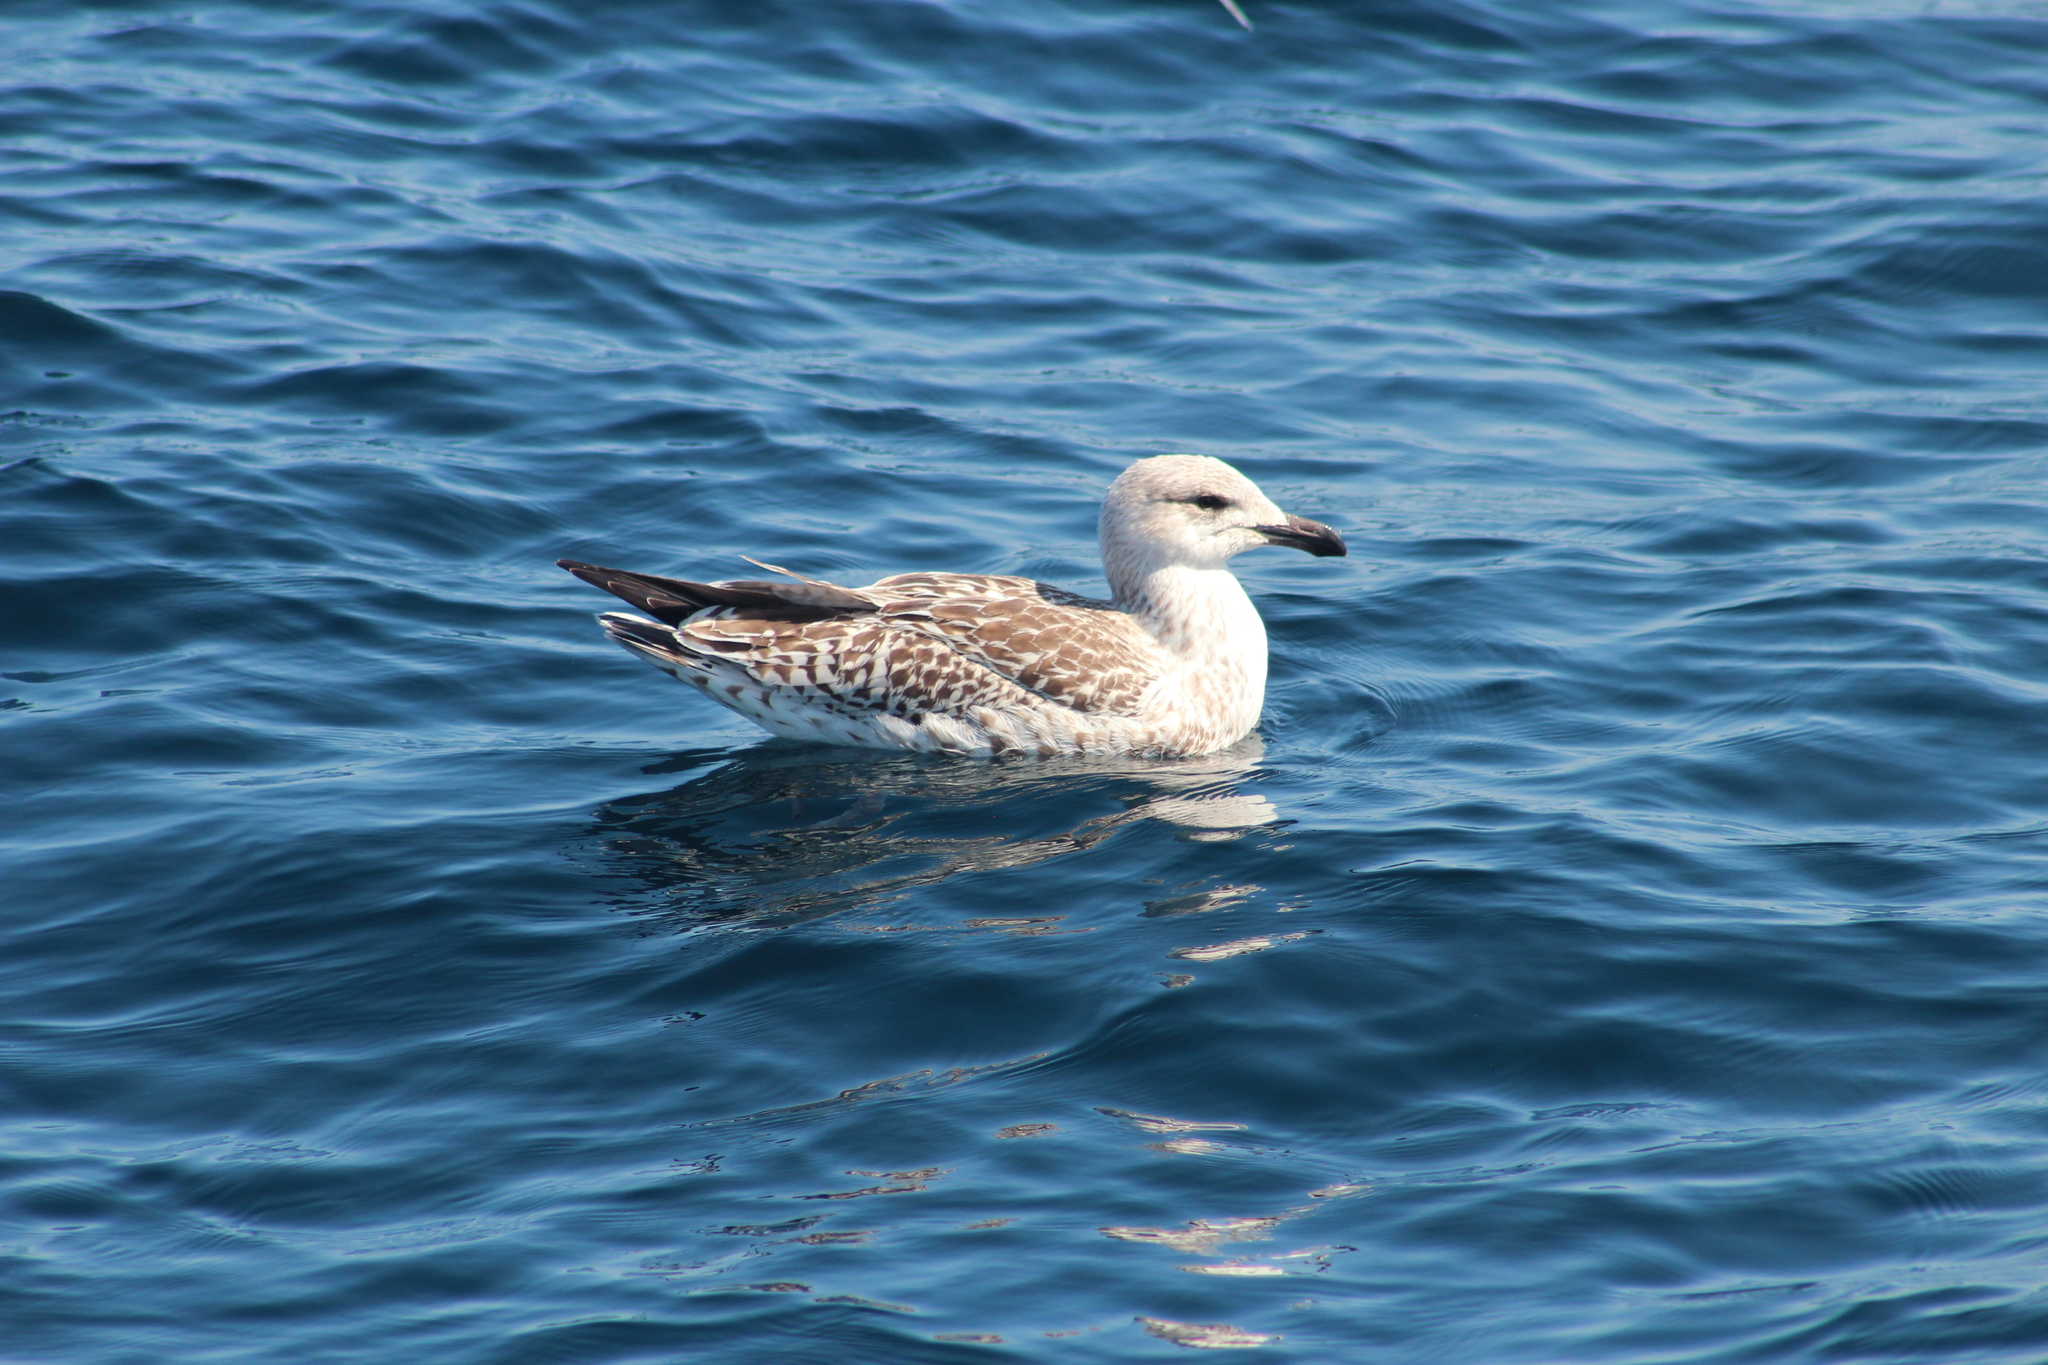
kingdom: Animalia
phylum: Chordata
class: Aves
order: Charadriiformes
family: Laridae
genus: Larus
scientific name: Larus marinus
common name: Great black-backed gull
